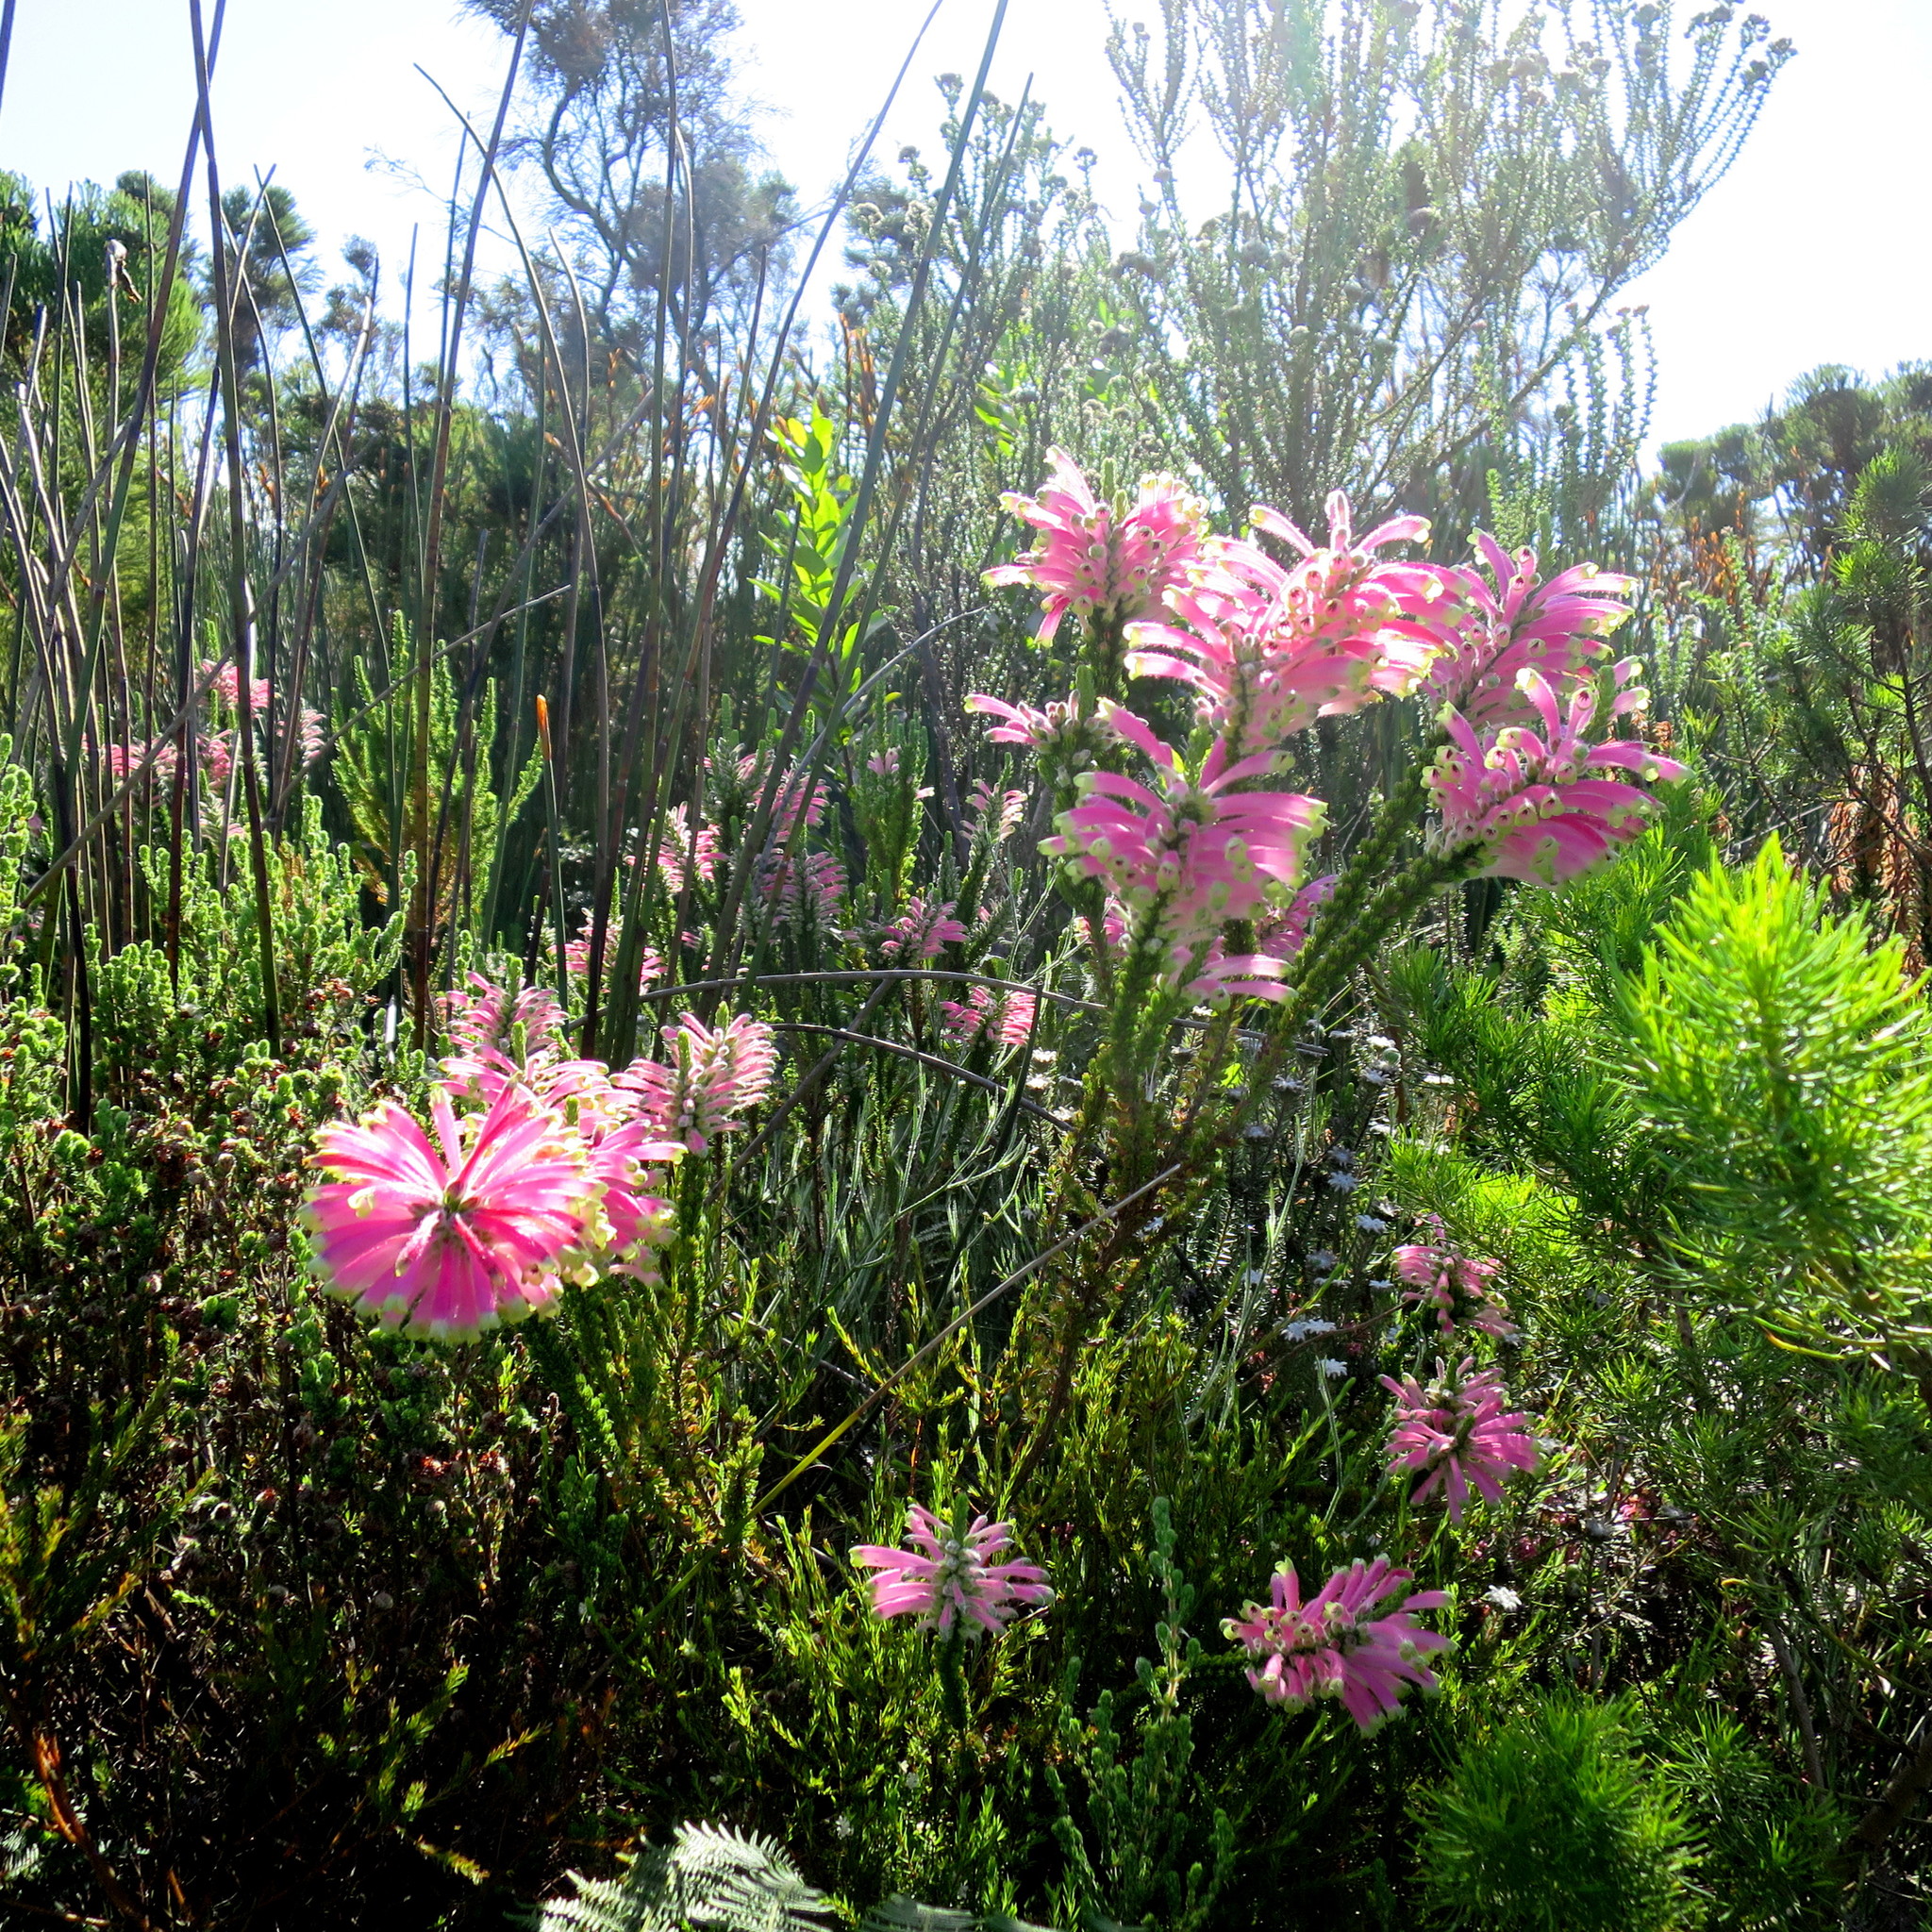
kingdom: Plantae
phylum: Tracheophyta
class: Magnoliopsida
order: Ericales
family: Ericaceae
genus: Erica
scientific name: Erica densifolia
